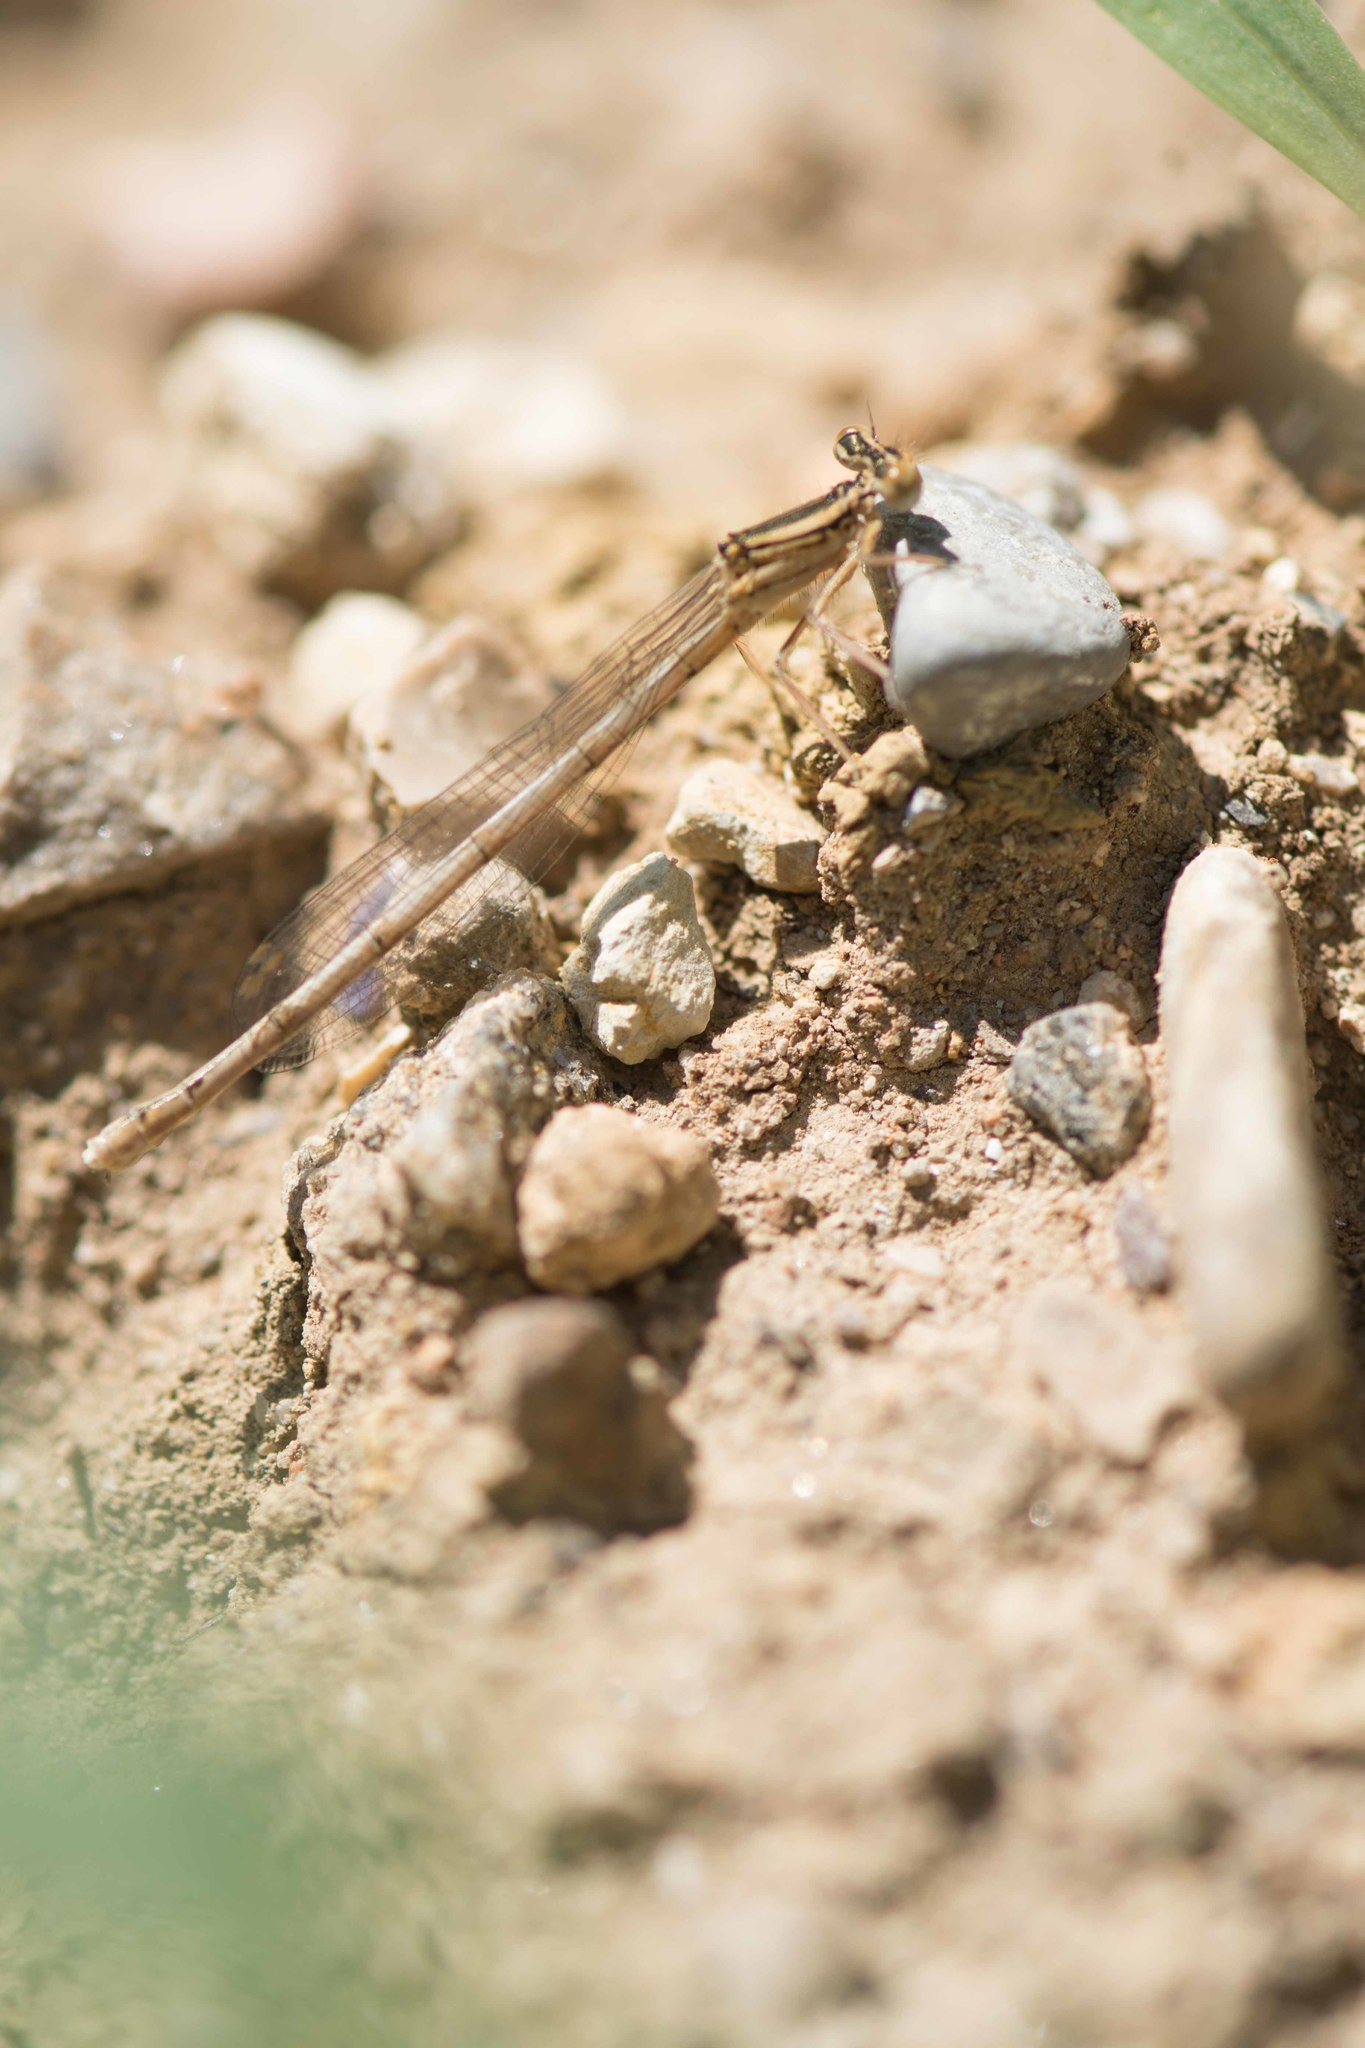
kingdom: Animalia
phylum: Arthropoda
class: Insecta
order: Odonata
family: Platycnemididae
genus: Platycnemis
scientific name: Platycnemis latipes
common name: White featherleg
